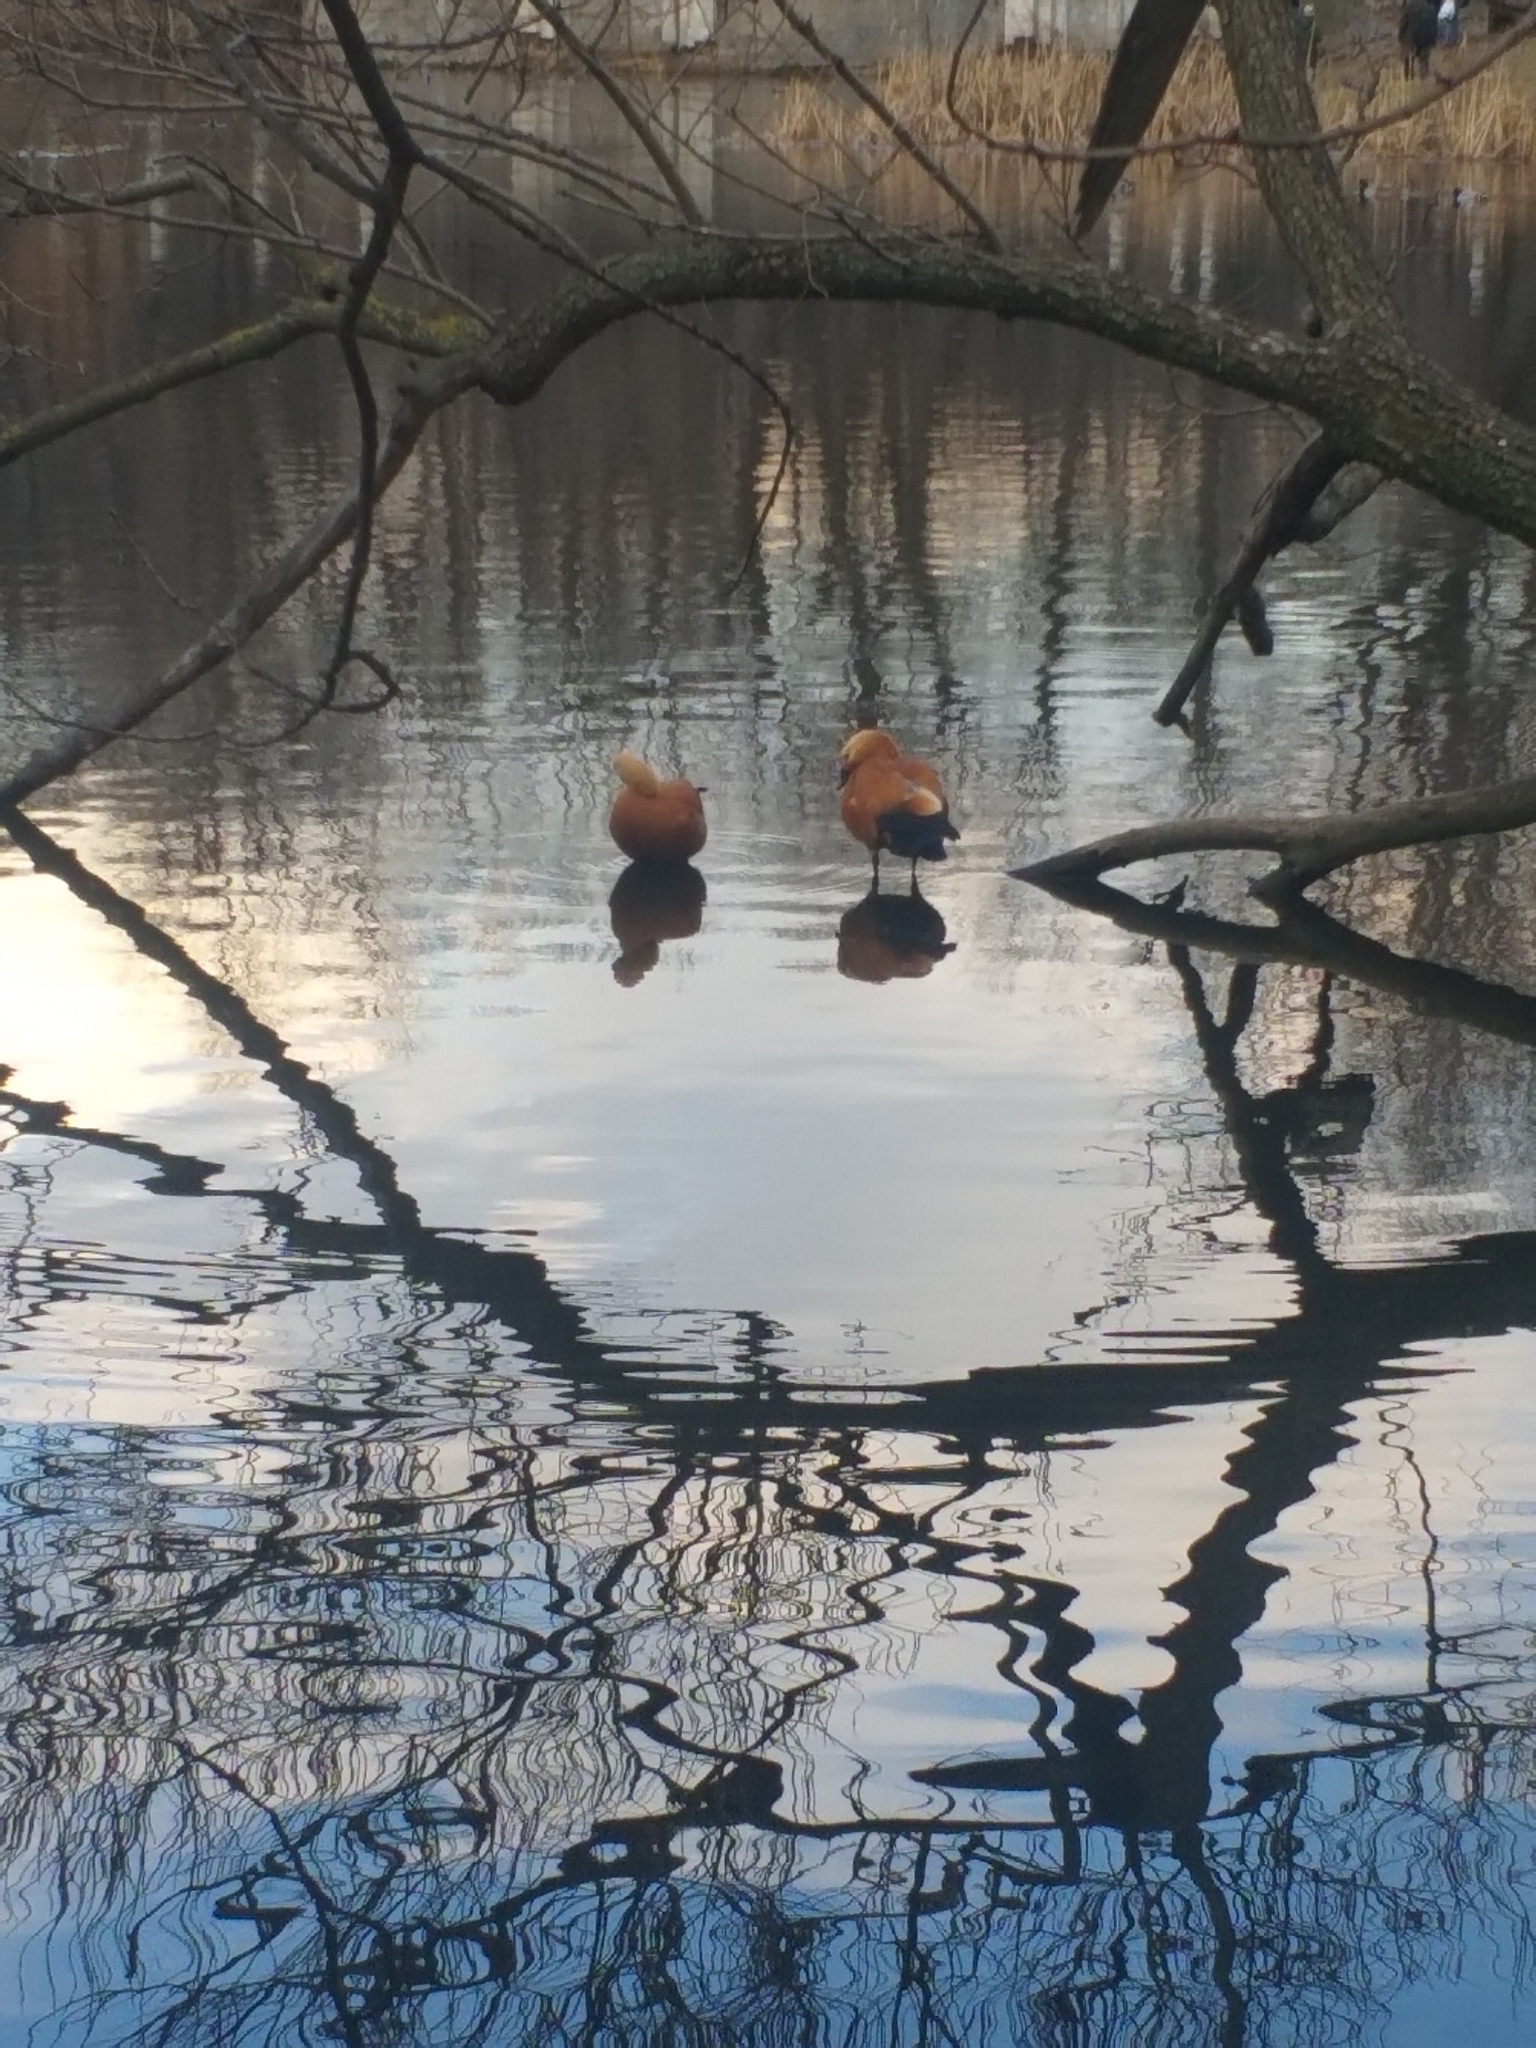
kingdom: Animalia
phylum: Chordata
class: Aves
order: Anseriformes
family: Anatidae
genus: Tadorna
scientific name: Tadorna ferruginea
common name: Ruddy shelduck
